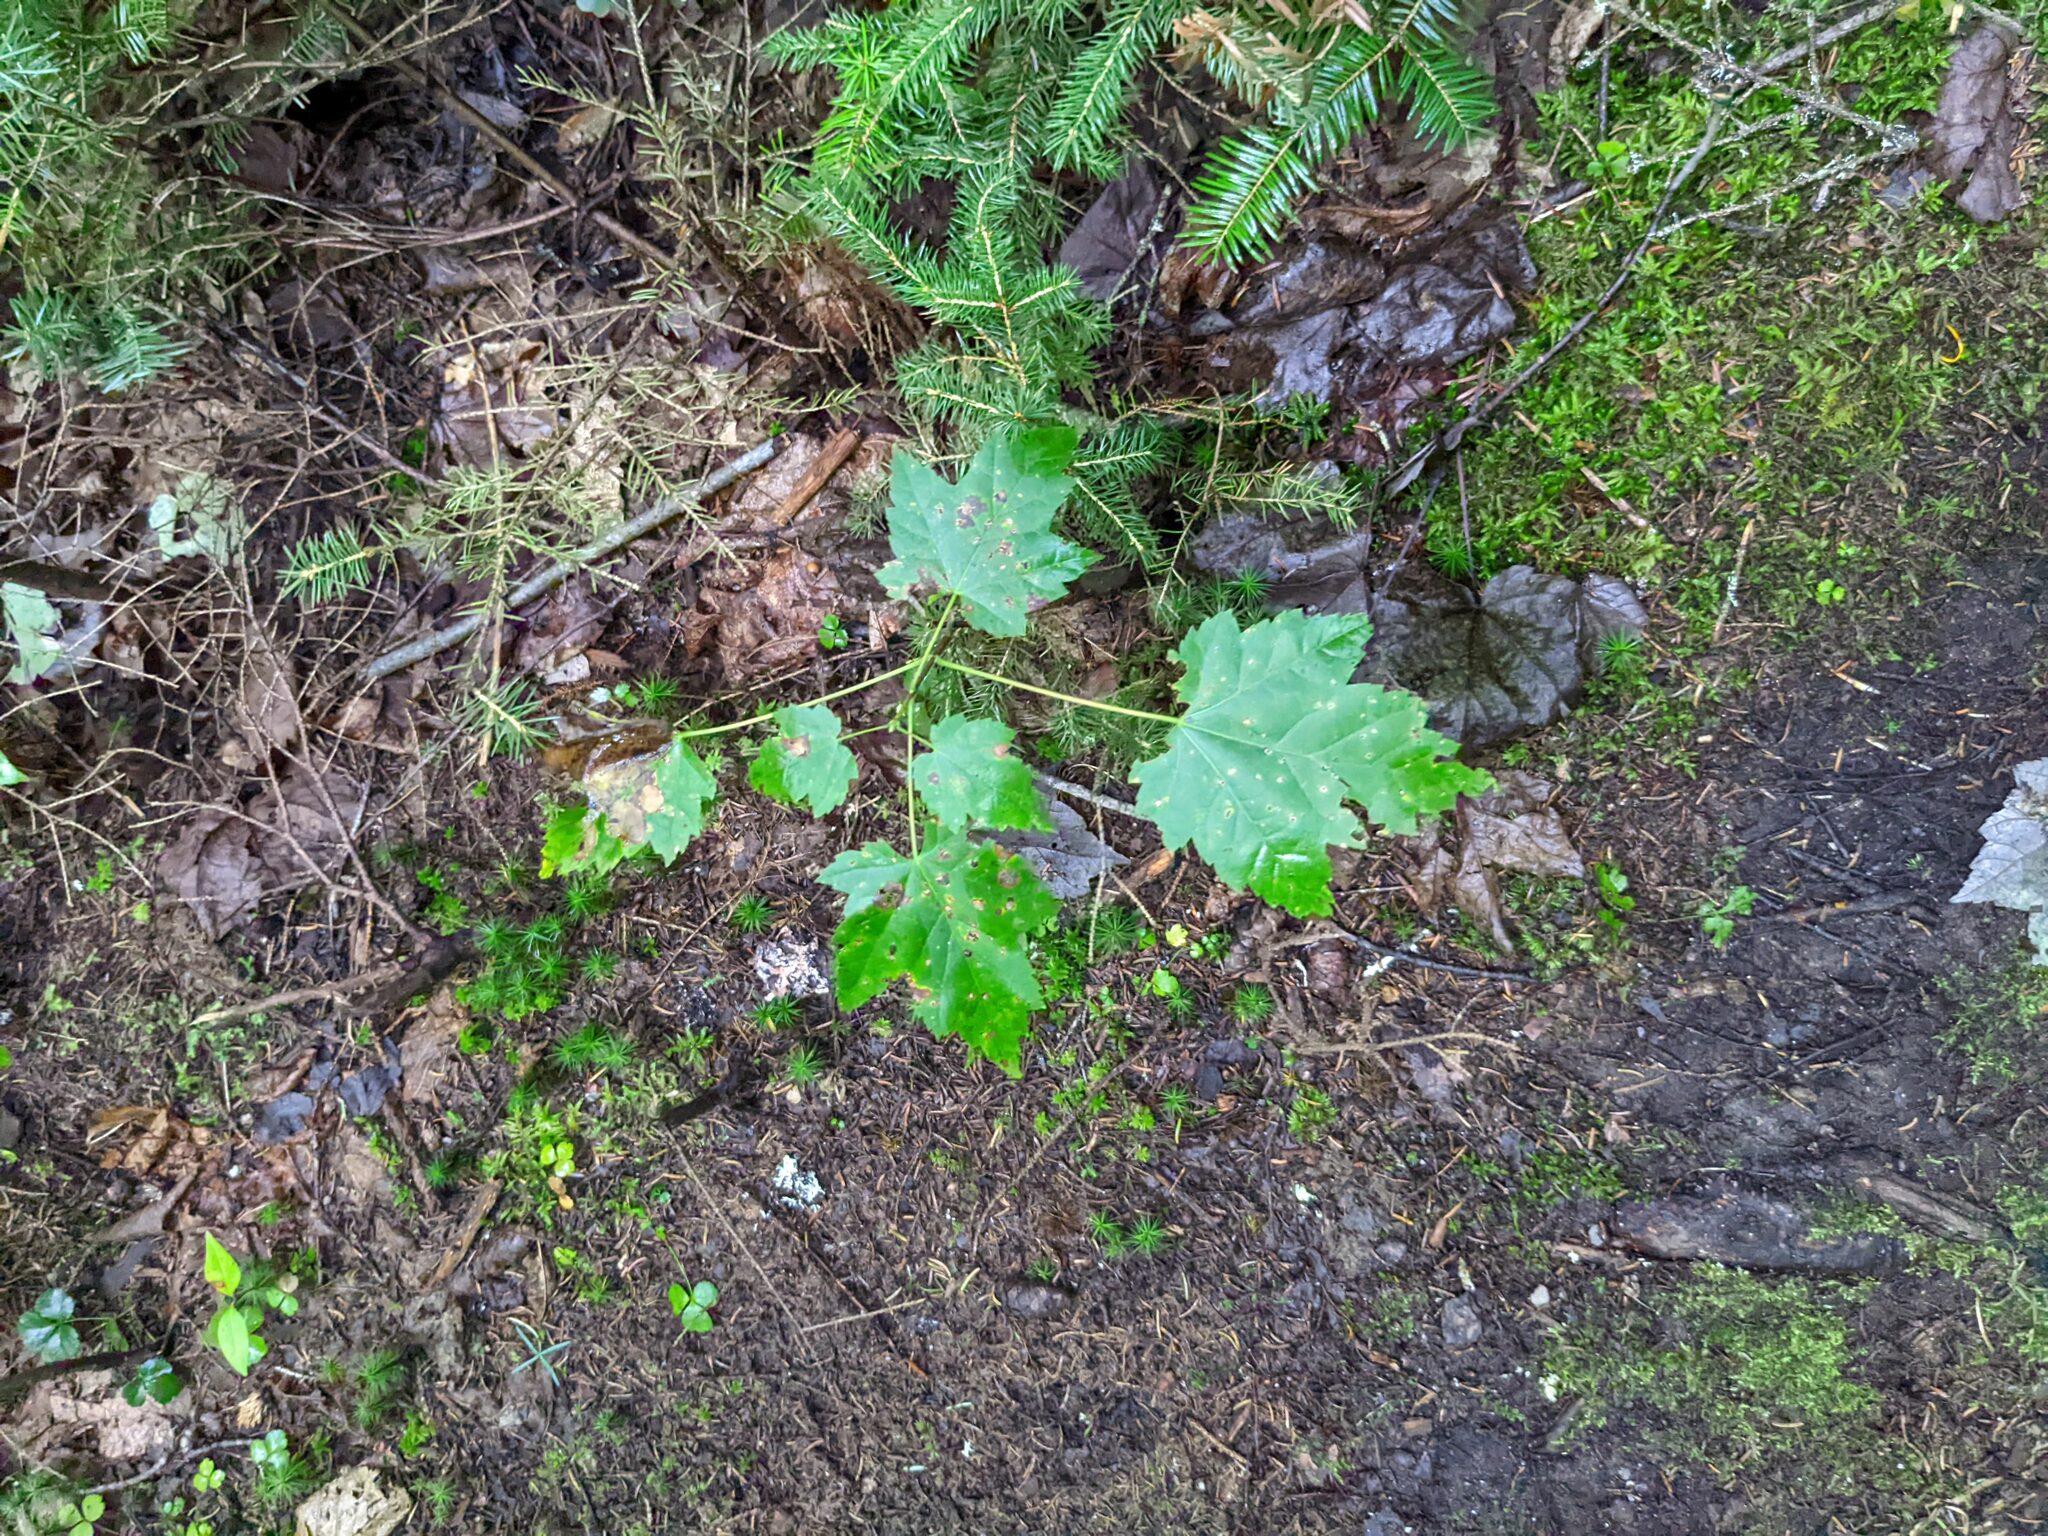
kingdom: Plantae
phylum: Tracheophyta
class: Magnoliopsida
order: Sapindales
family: Sapindaceae
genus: Acer
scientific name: Acer rubrum
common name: Red maple
